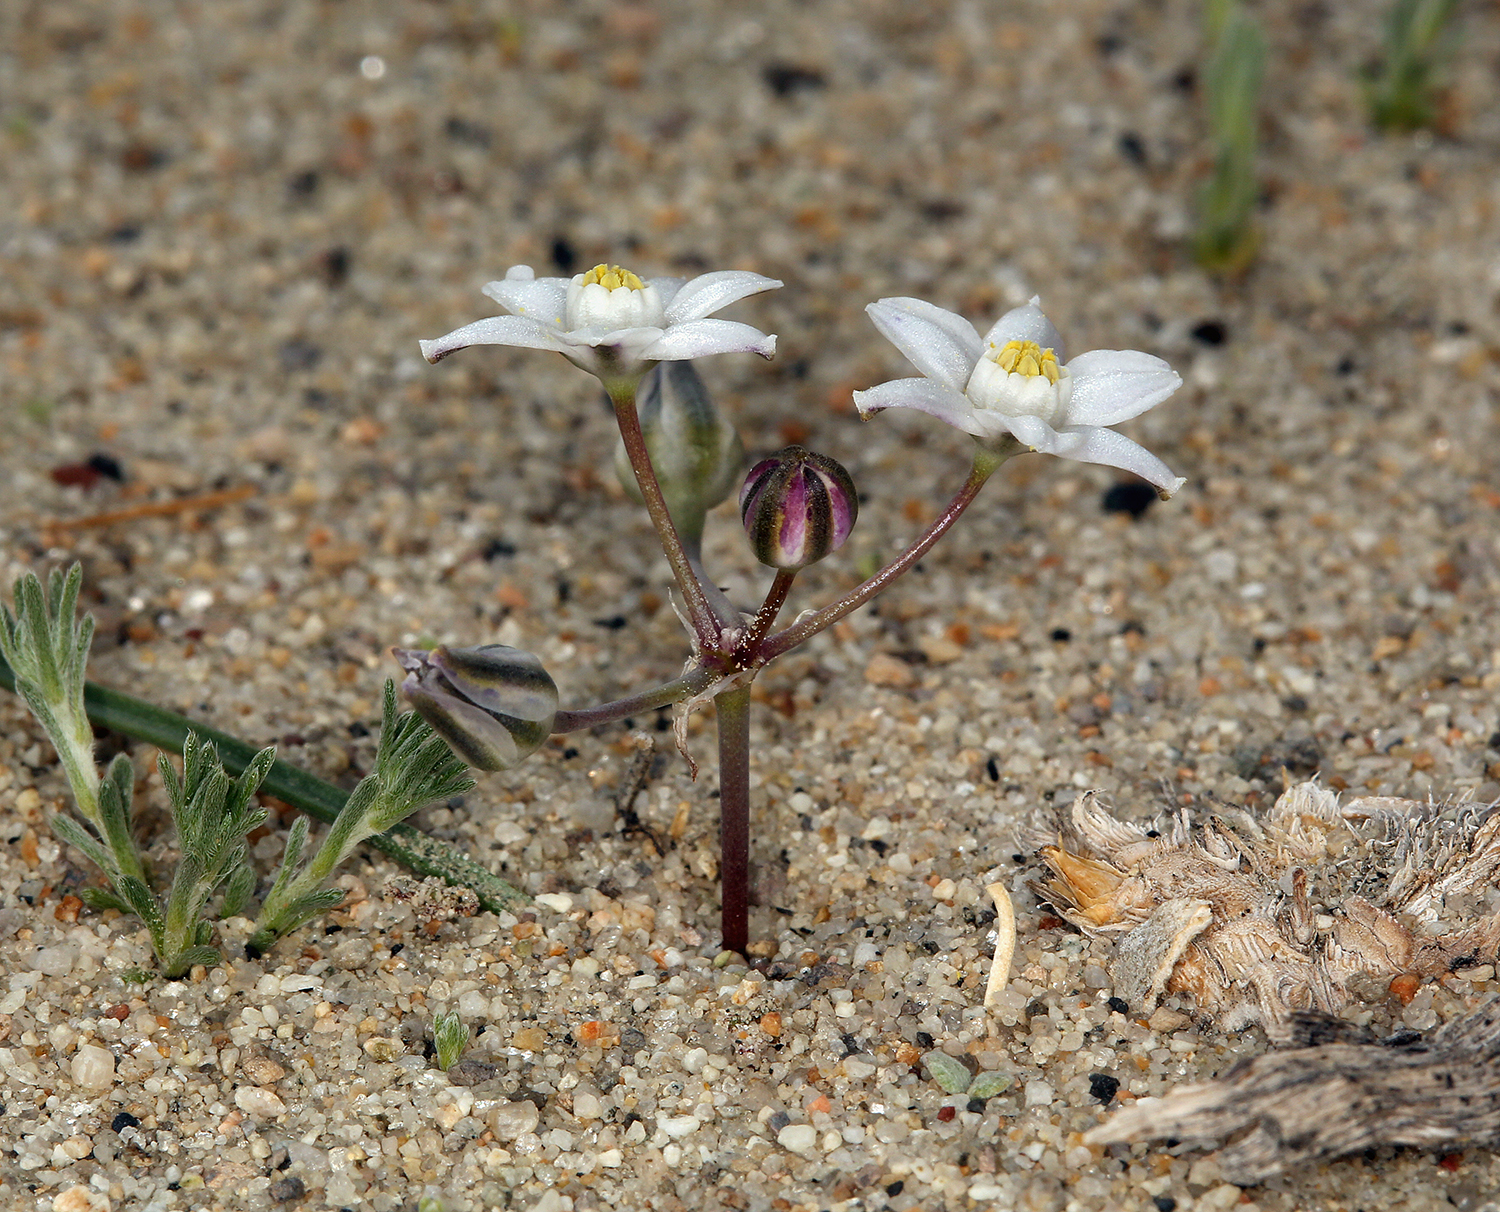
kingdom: Plantae
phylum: Tracheophyta
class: Liliopsida
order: Asparagales
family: Asparagaceae
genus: Muilla
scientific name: Muilla coronata
